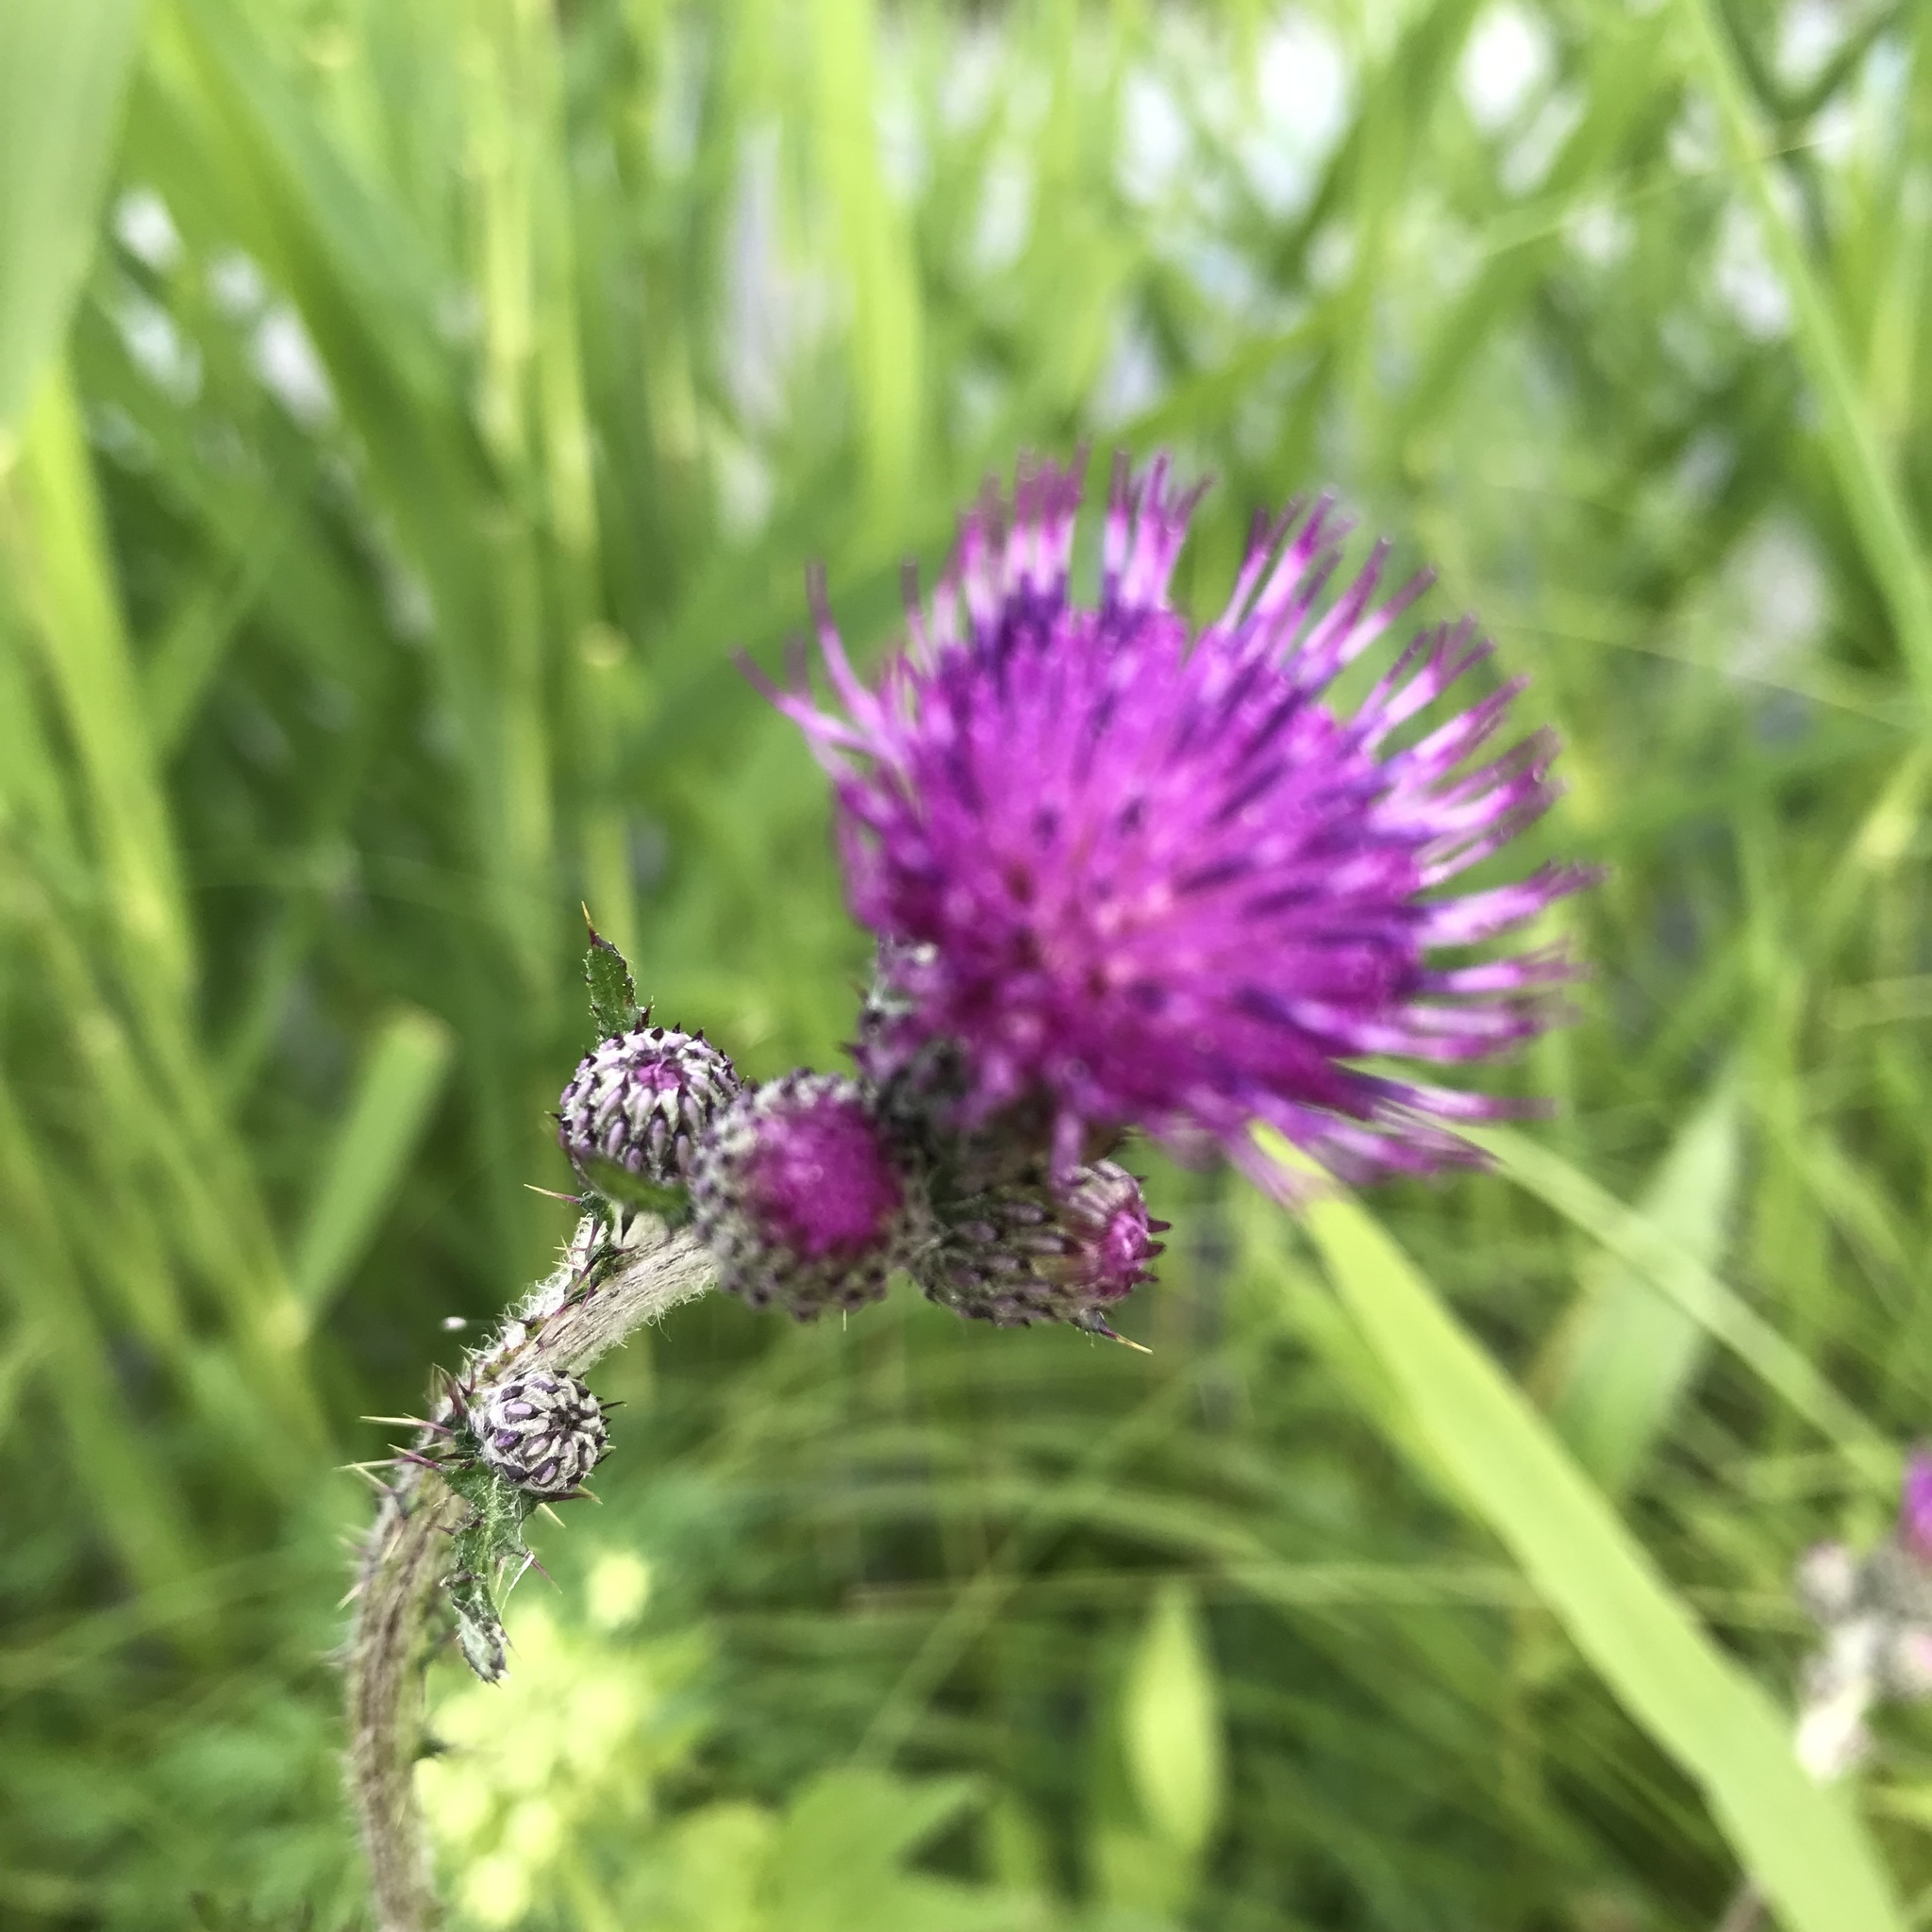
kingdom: Plantae
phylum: Tracheophyta
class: Magnoliopsida
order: Asterales
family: Asteraceae
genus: Cirsium
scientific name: Cirsium palustre
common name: Marsh thistle
